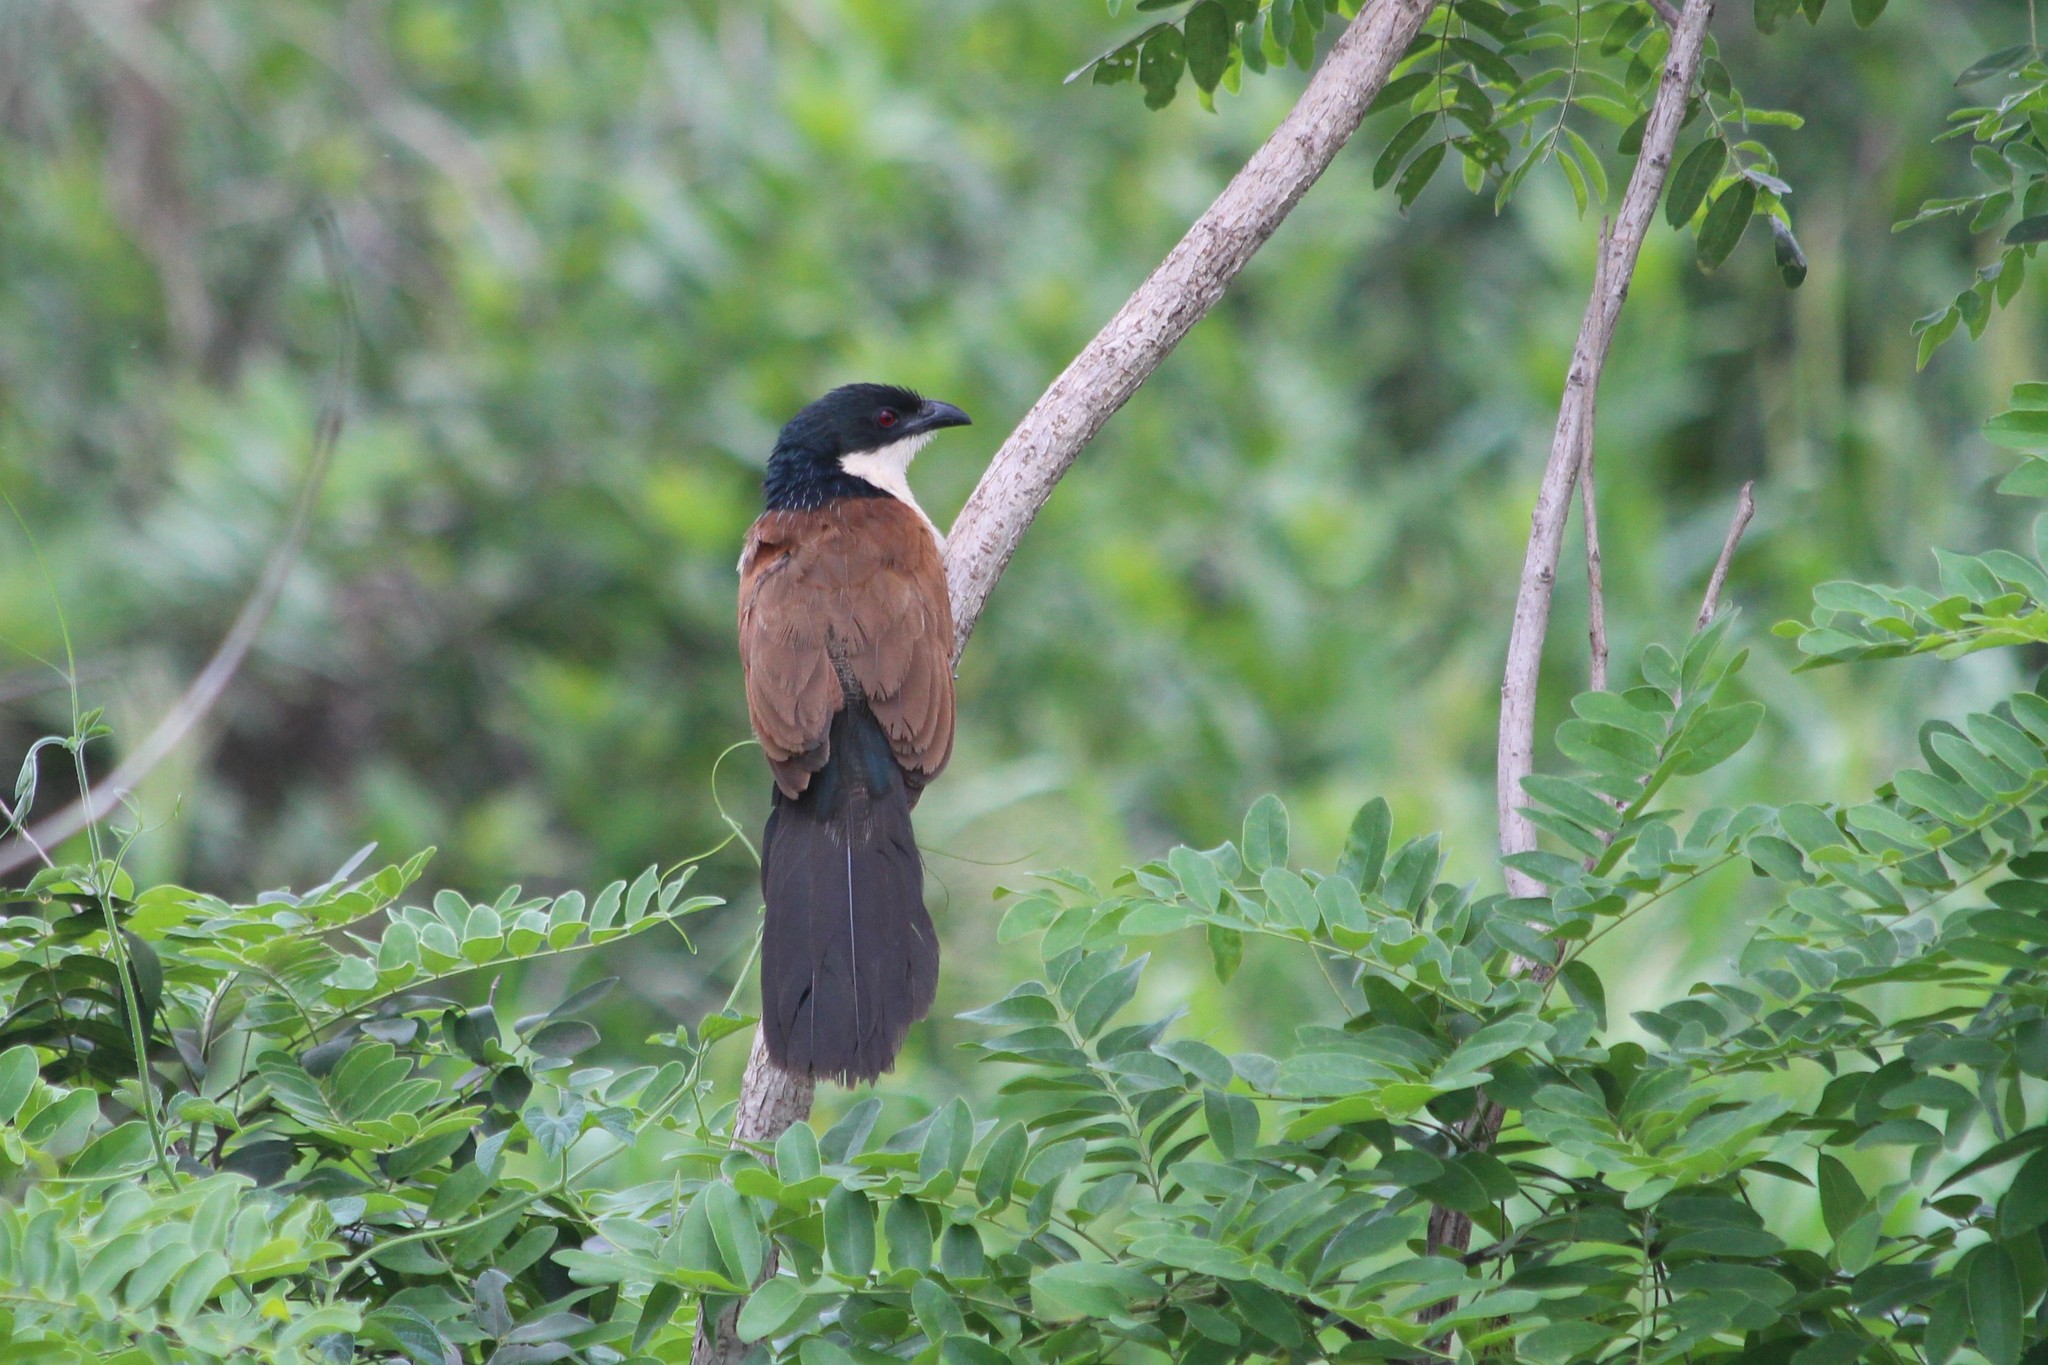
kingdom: Animalia
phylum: Chordata
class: Aves
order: Cuculiformes
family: Cuculidae
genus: Centropus
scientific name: Centropus superciliosus
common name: White-browed coucal
